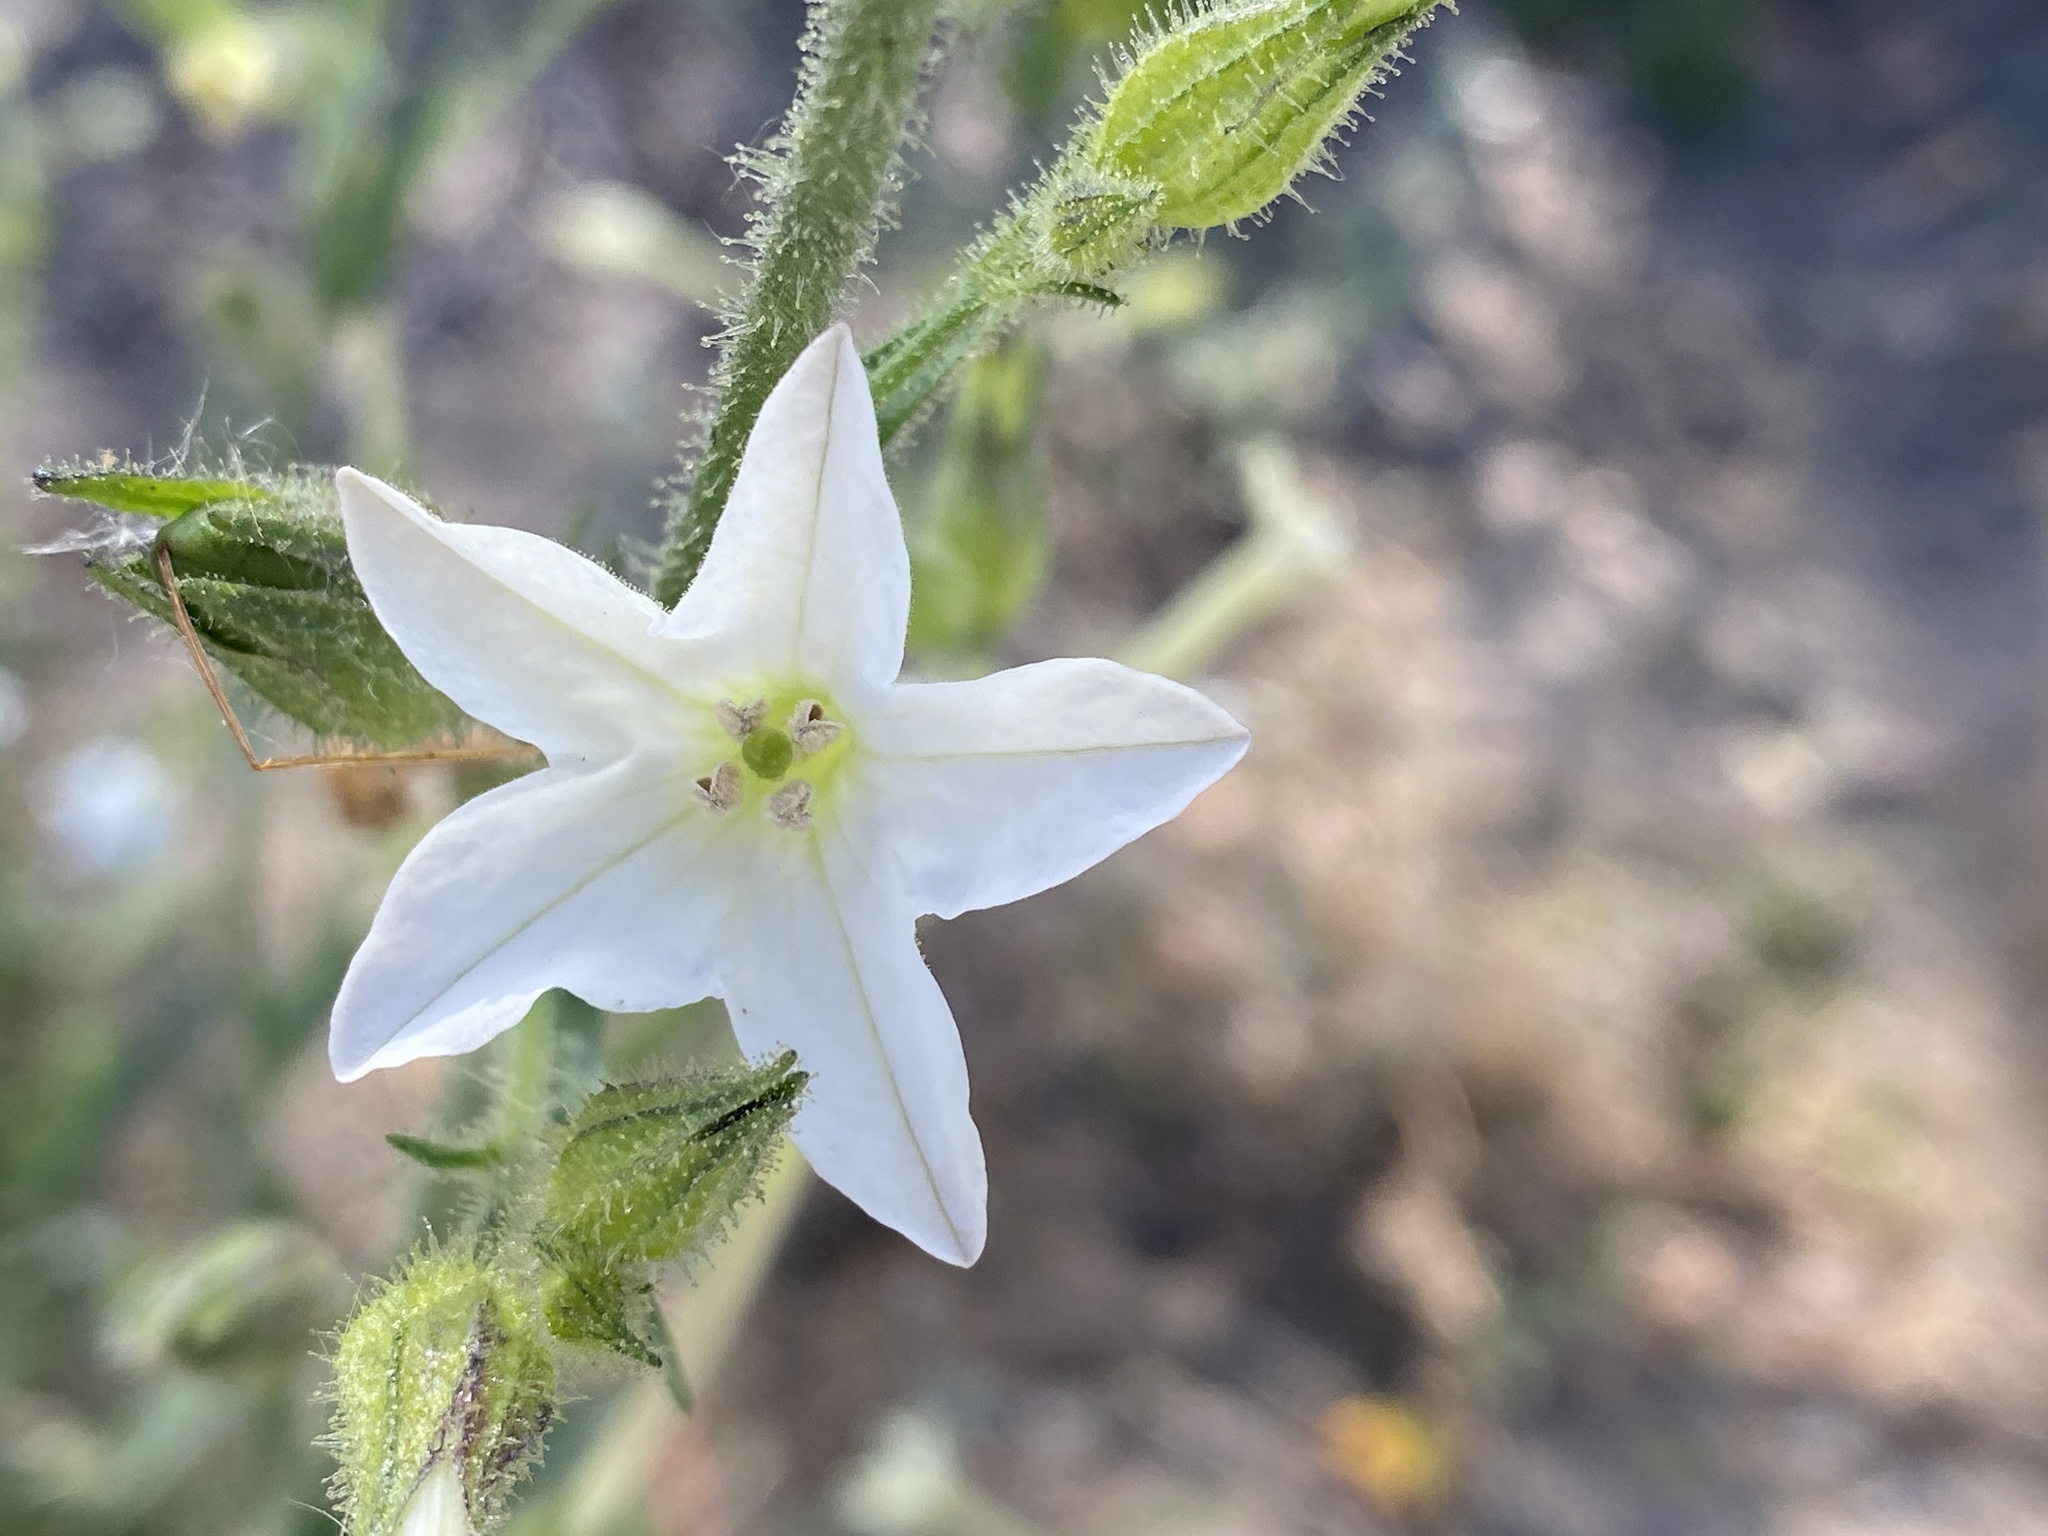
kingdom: Plantae
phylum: Tracheophyta
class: Magnoliopsida
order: Solanales
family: Solanaceae
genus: Nicotiana
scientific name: Nicotiana quadrivalvis
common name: Indian tobacco
